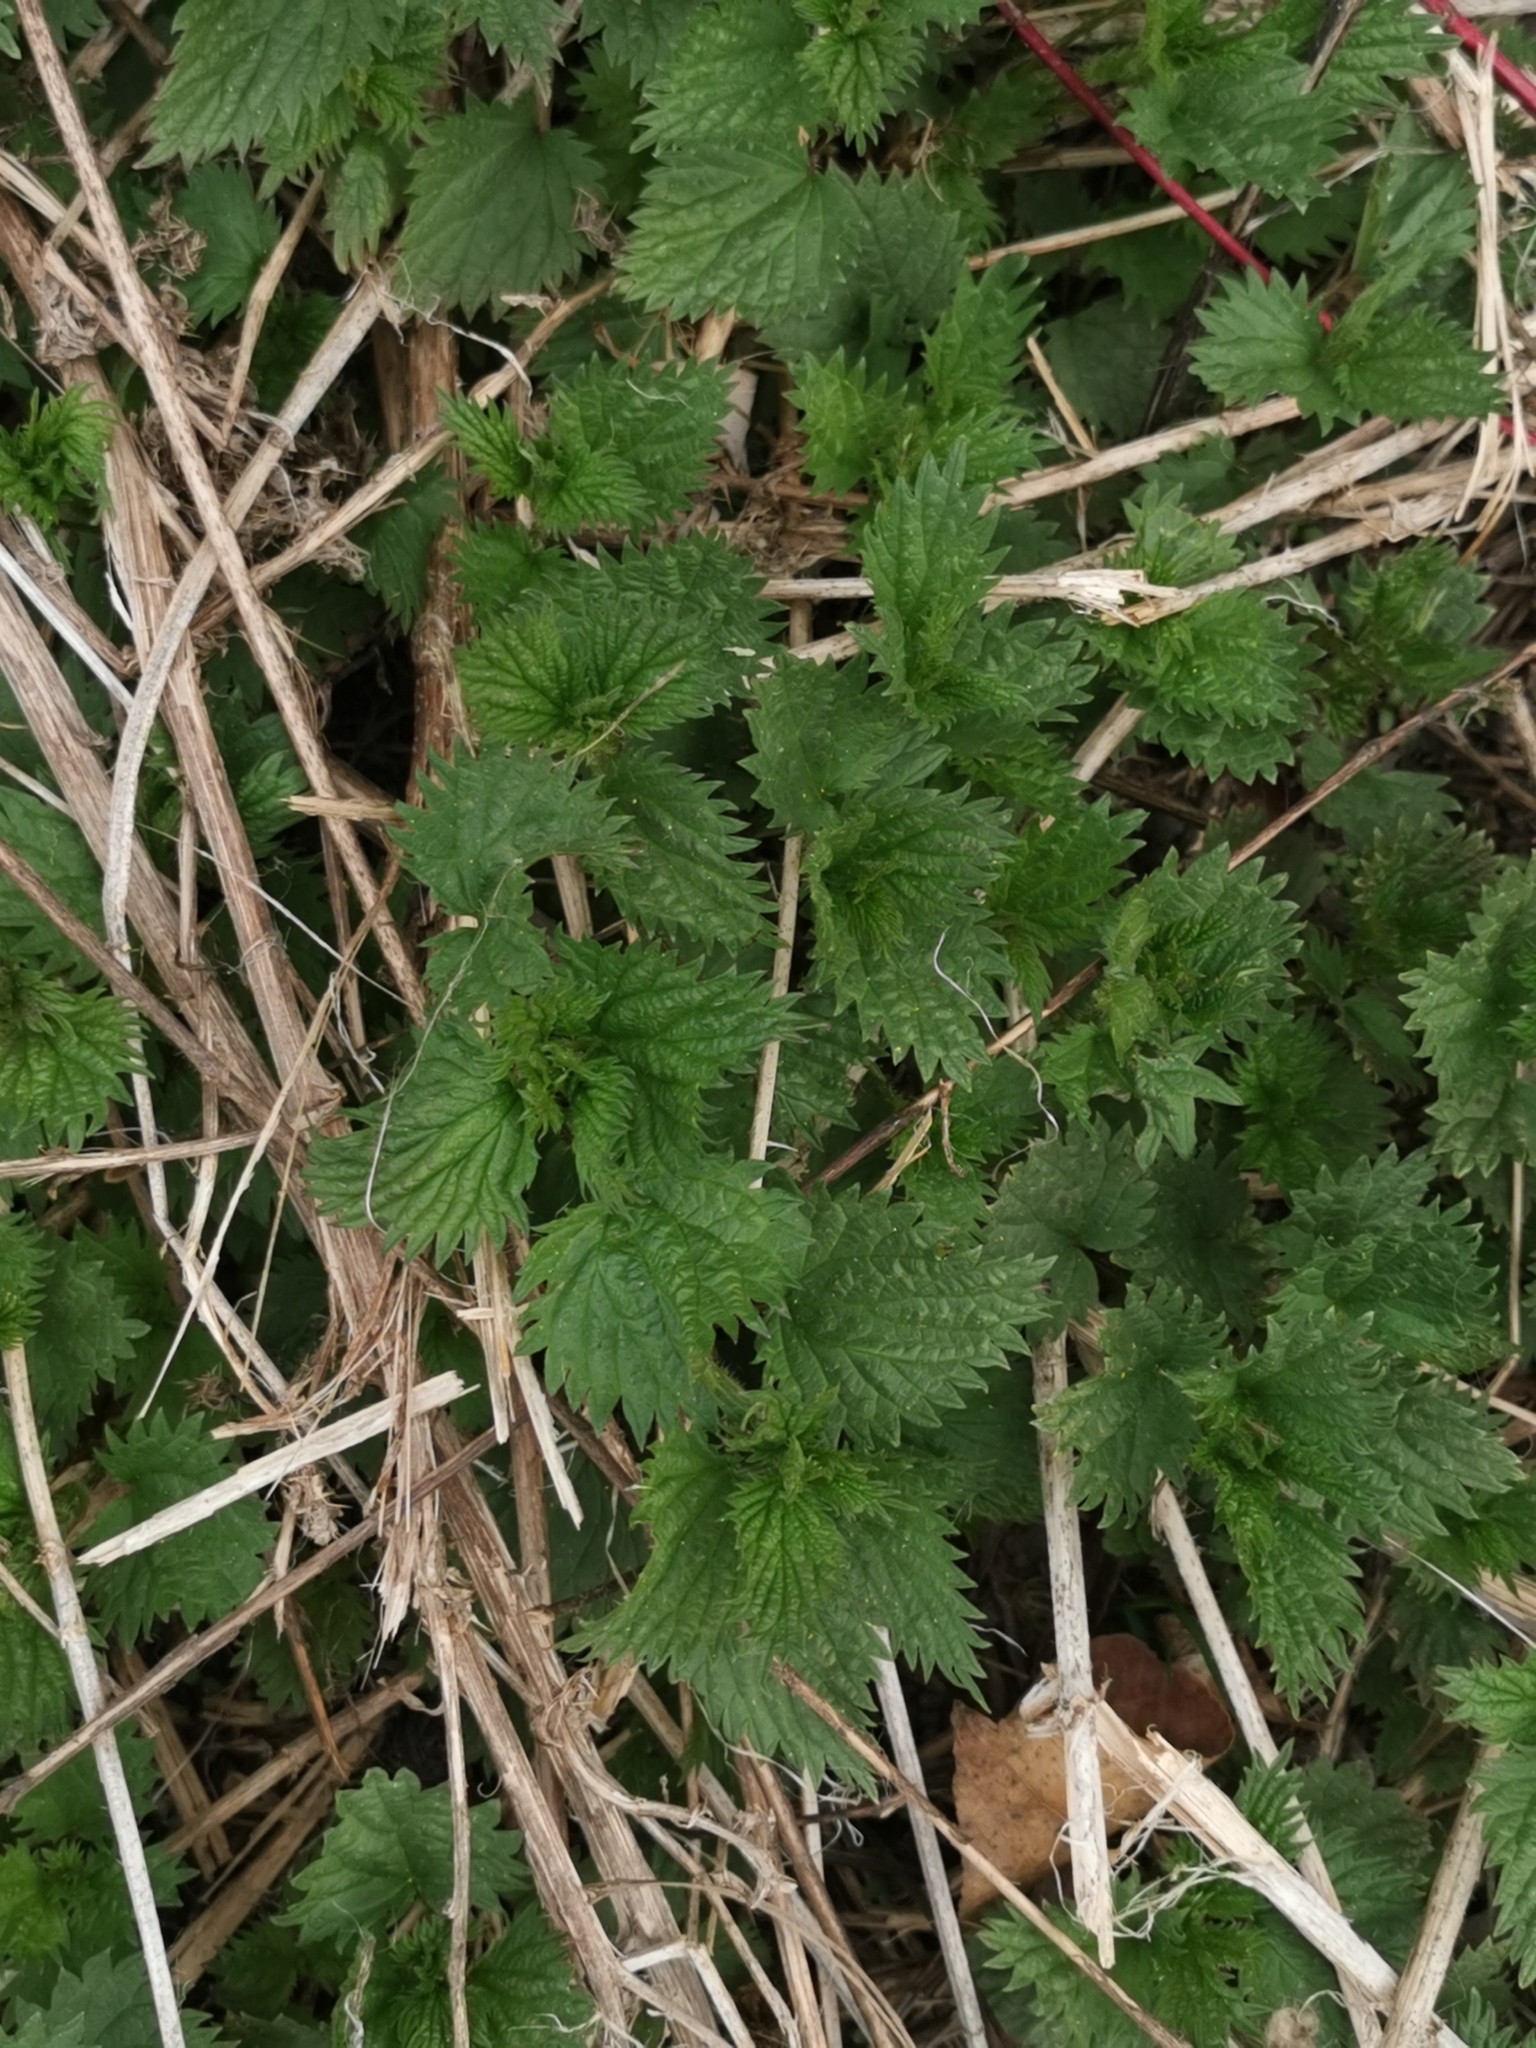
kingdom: Plantae
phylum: Tracheophyta
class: Magnoliopsida
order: Rosales
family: Urticaceae
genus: Urtica
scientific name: Urtica gracilis
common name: Slender stinging nettle
